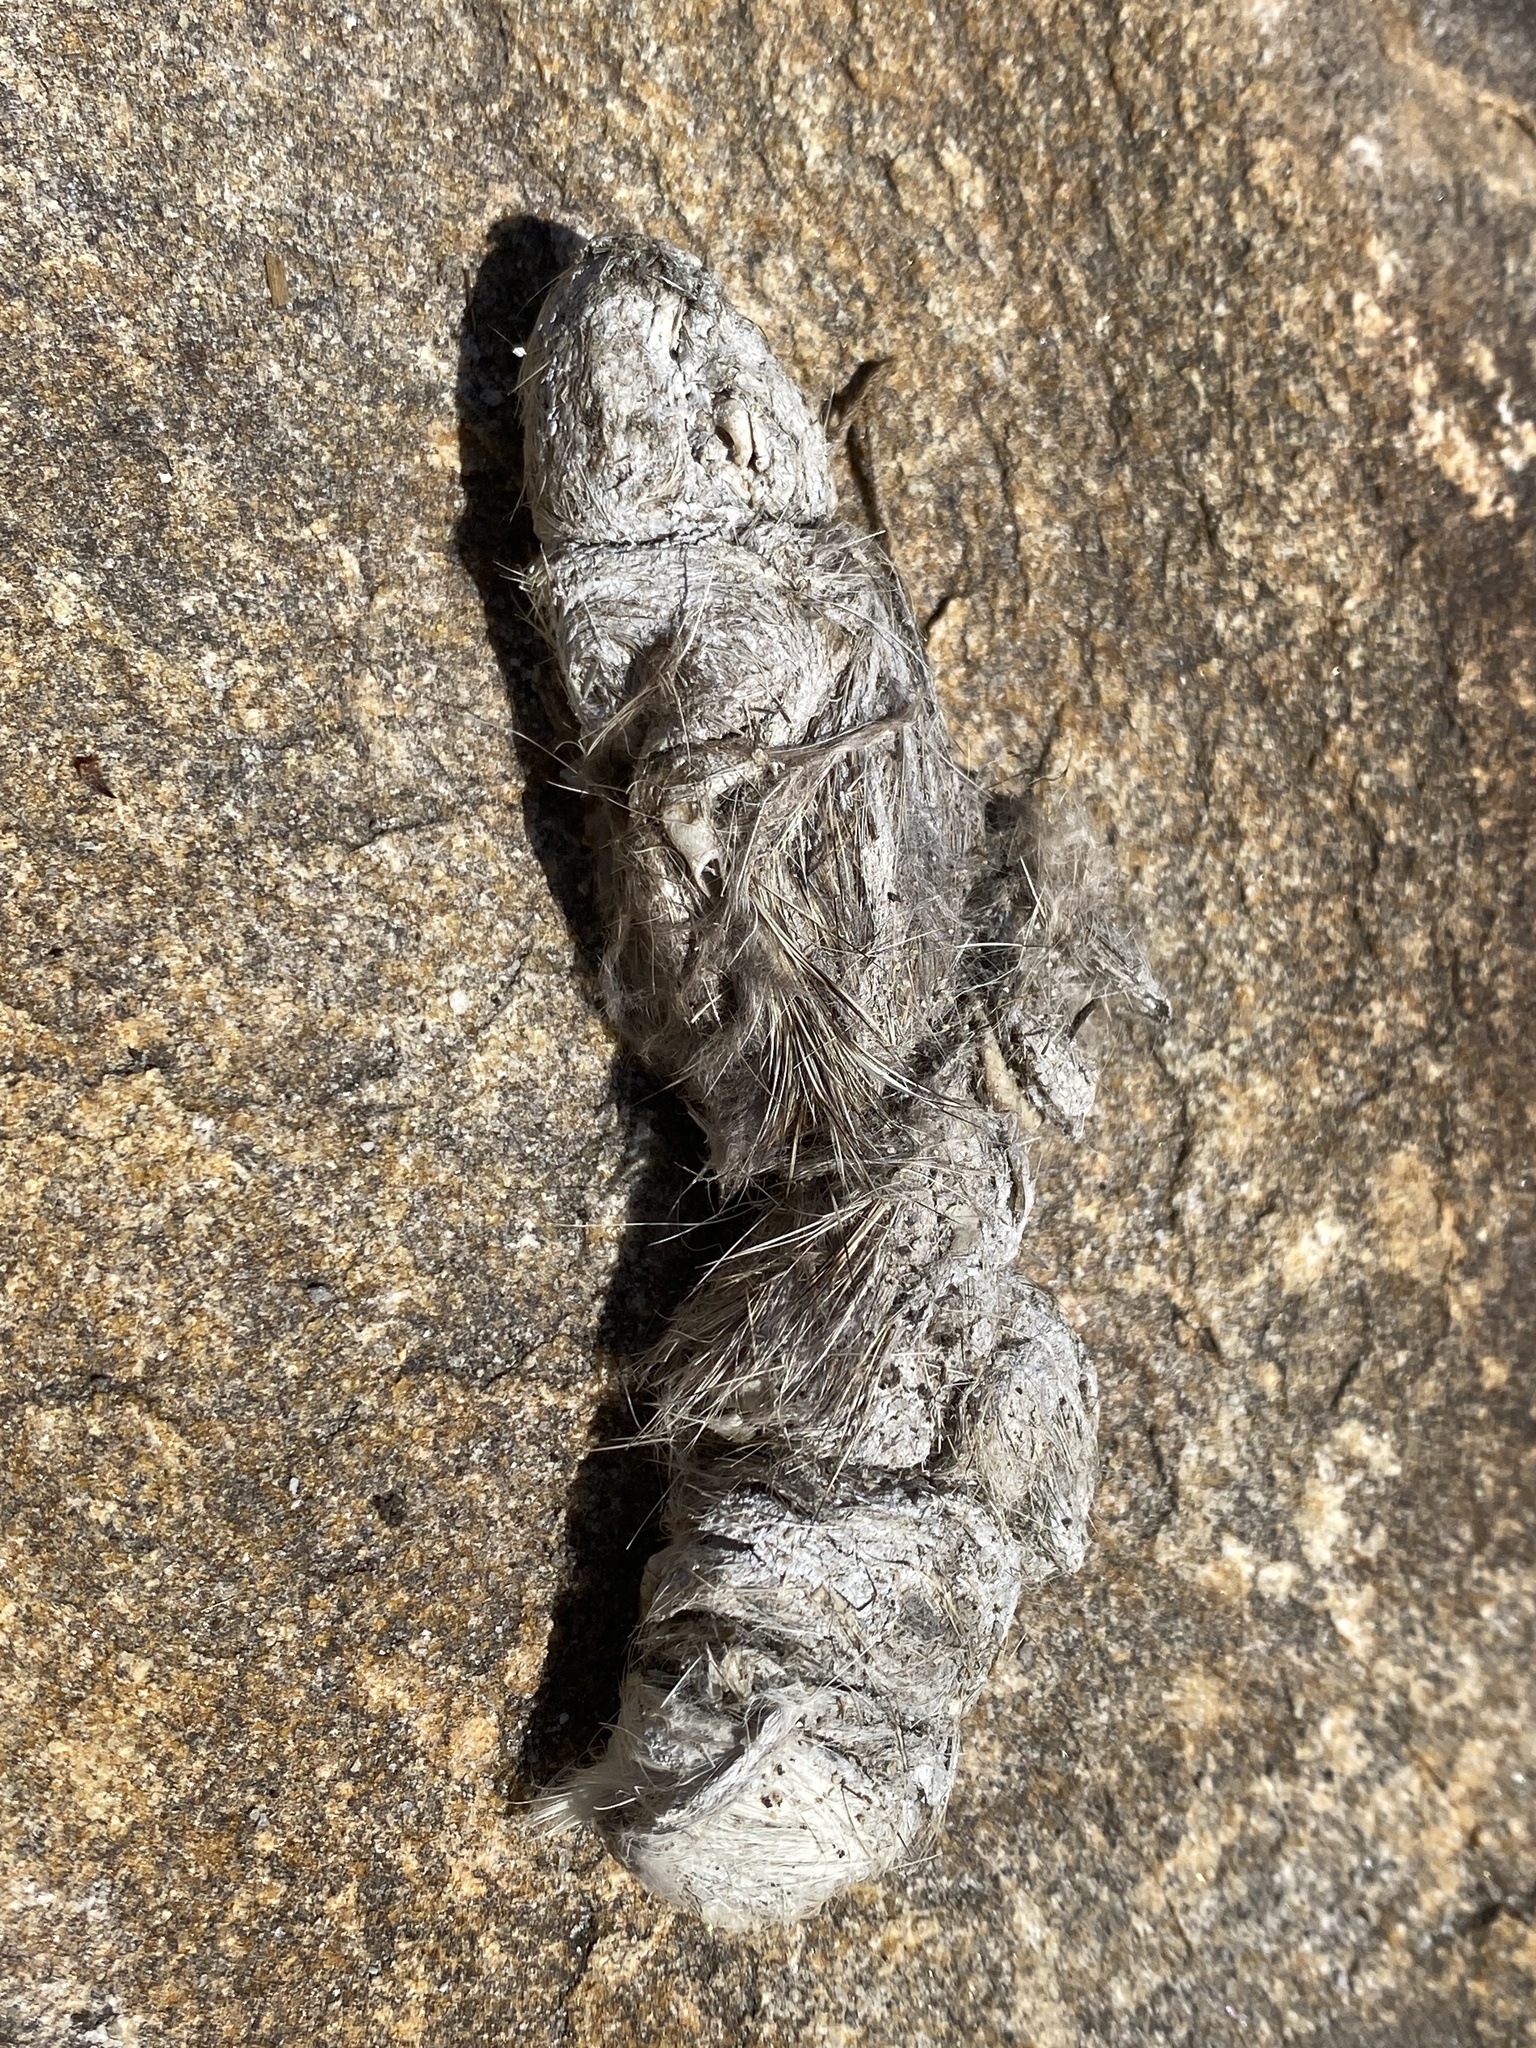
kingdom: Animalia
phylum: Chordata
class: Mammalia
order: Carnivora
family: Felidae
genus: Lynx
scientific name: Lynx rufus
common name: Bobcat
